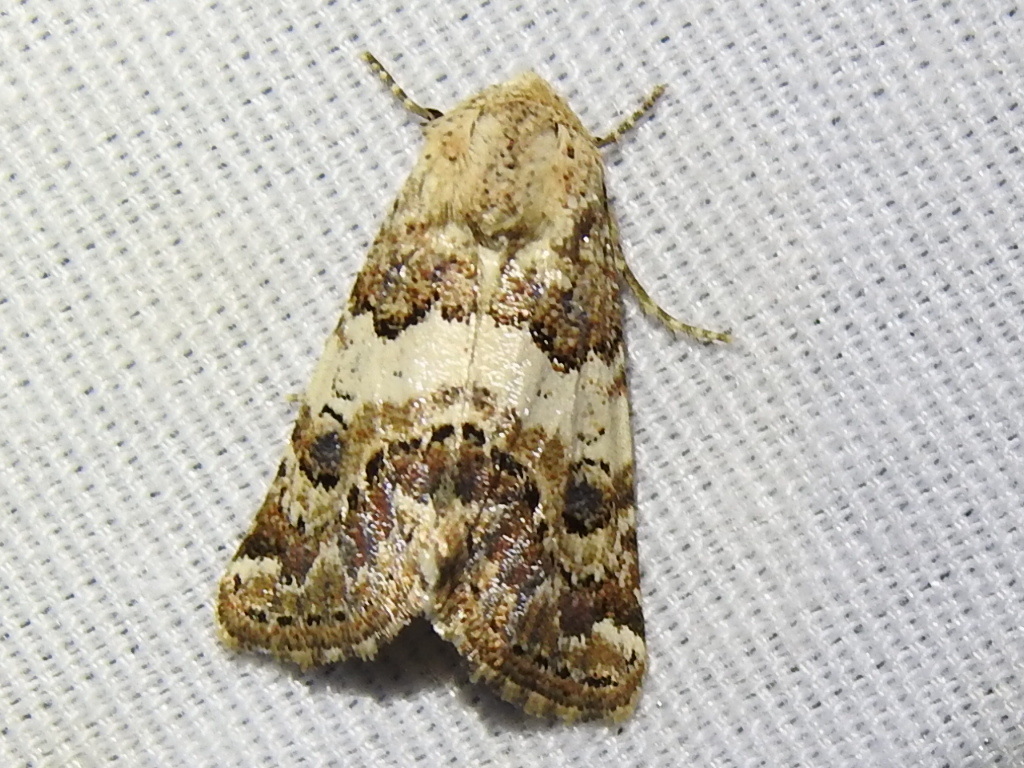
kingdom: Animalia
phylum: Arthropoda
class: Insecta
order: Lepidoptera
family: Noctuidae
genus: Schinia
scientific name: Schinia tertia
